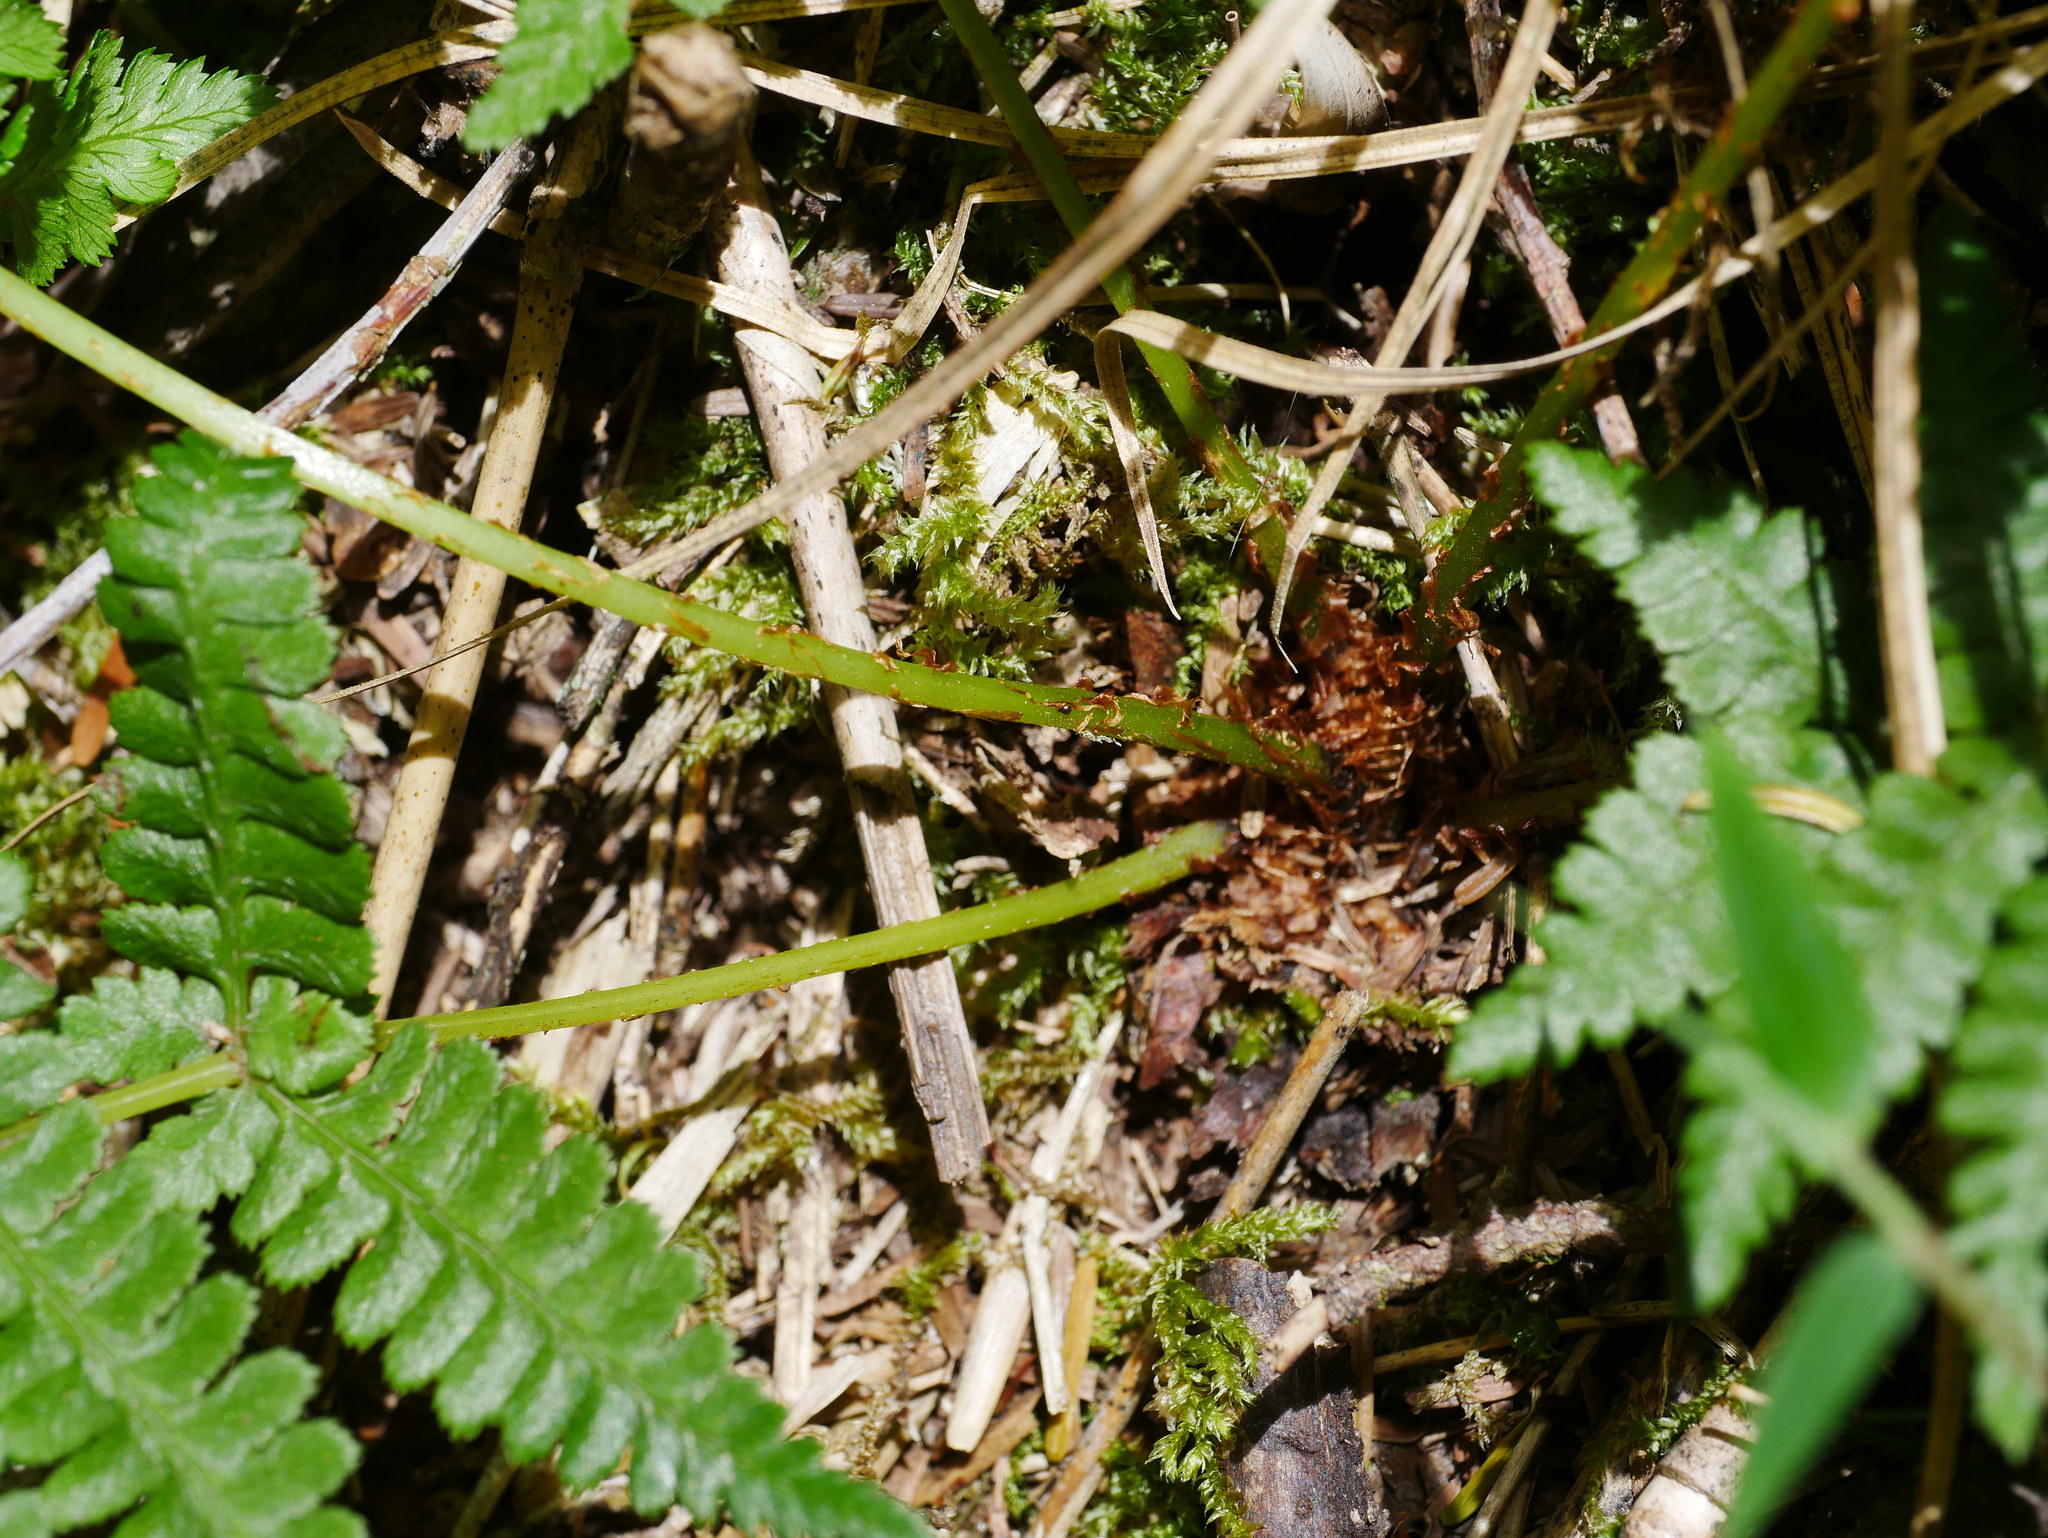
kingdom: Plantae
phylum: Tracheophyta
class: Polypodiopsida
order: Polypodiales
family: Athyriaceae
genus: Athyrium
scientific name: Athyrium oppositipennum
